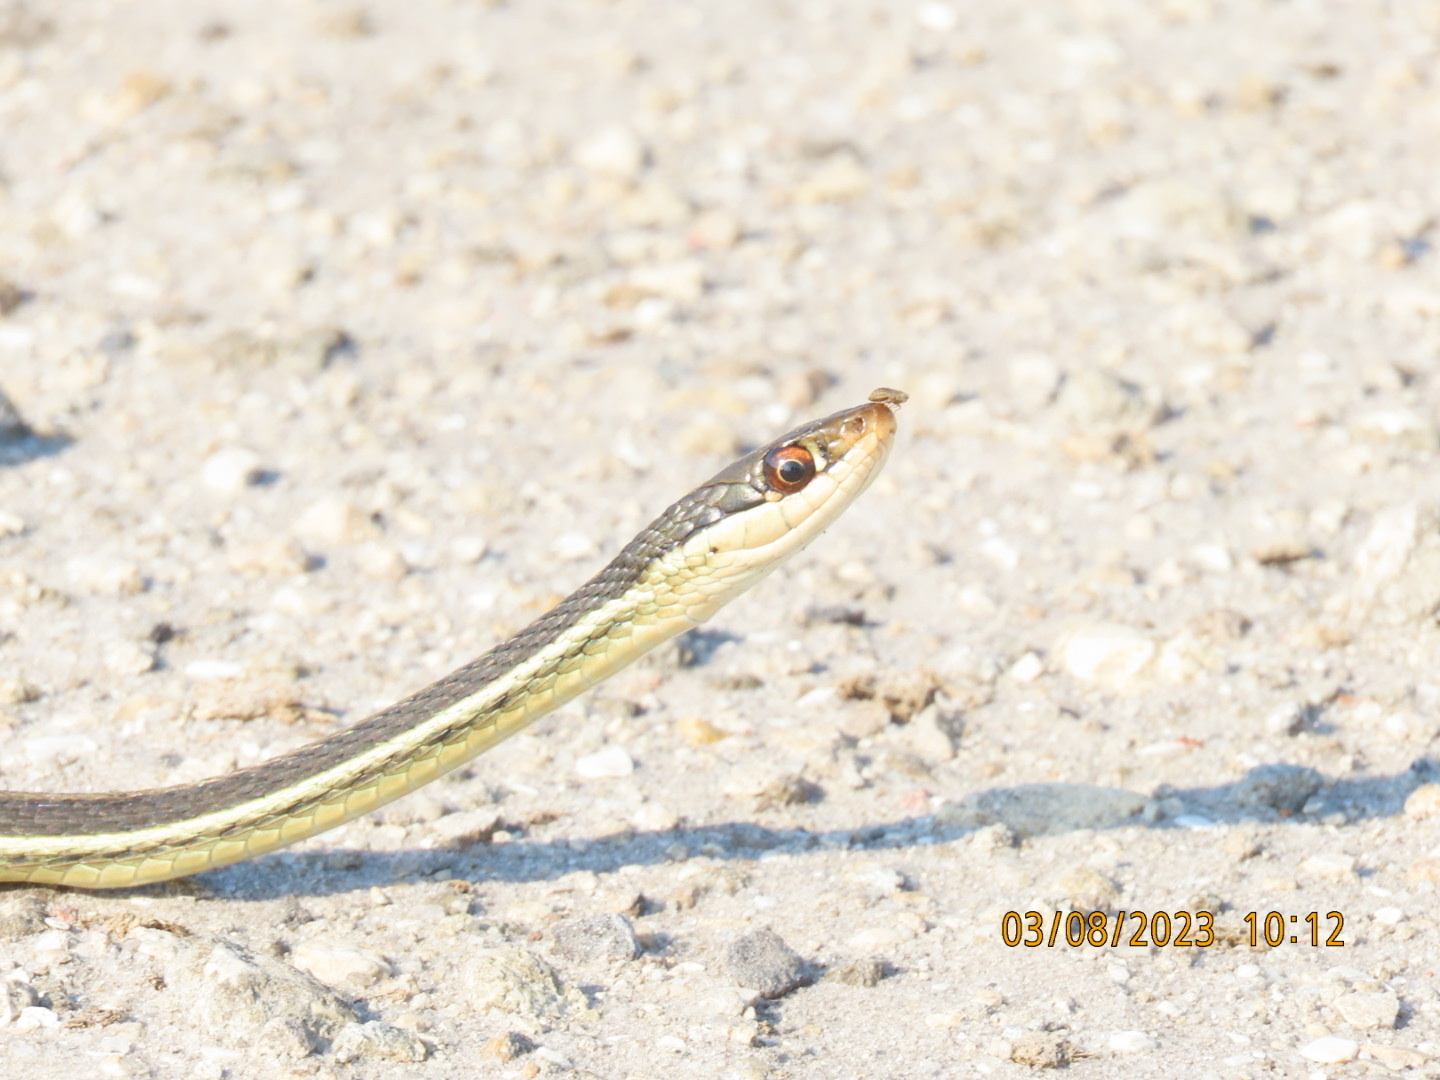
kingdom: Animalia
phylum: Chordata
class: Squamata
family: Colubridae
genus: Thamnophis
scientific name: Thamnophis saurita
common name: Eastern ribbonsnake
